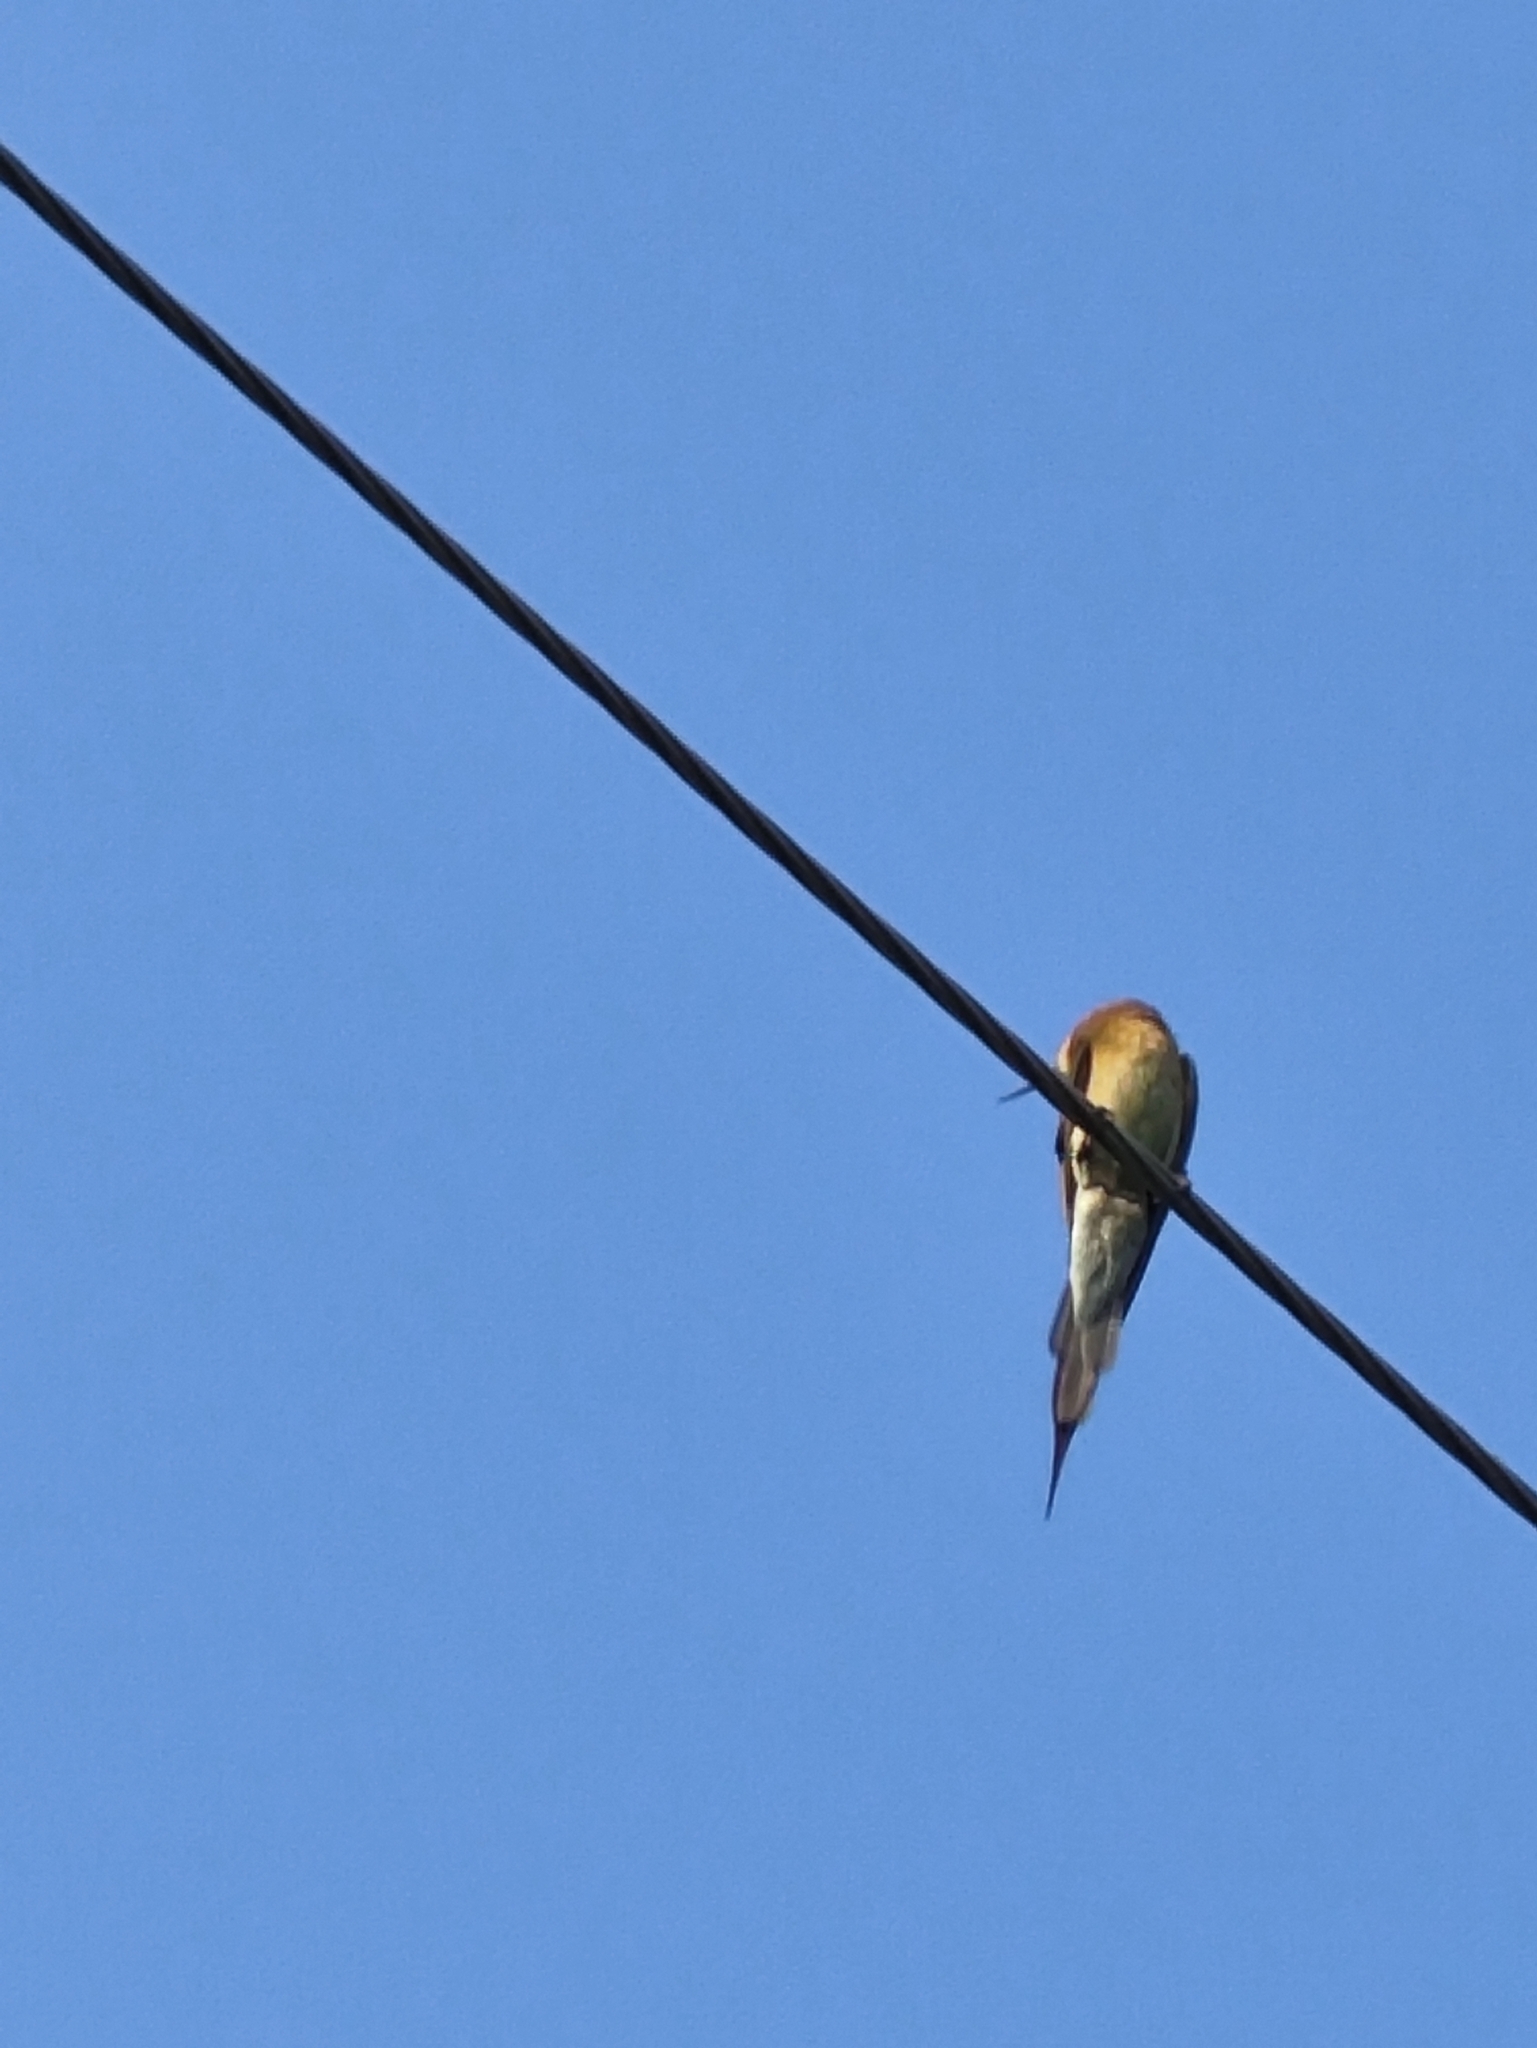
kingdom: Animalia
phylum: Chordata
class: Aves
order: Coraciiformes
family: Meropidae
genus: Merops
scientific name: Merops philippinus
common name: Blue-tailed bee-eater
